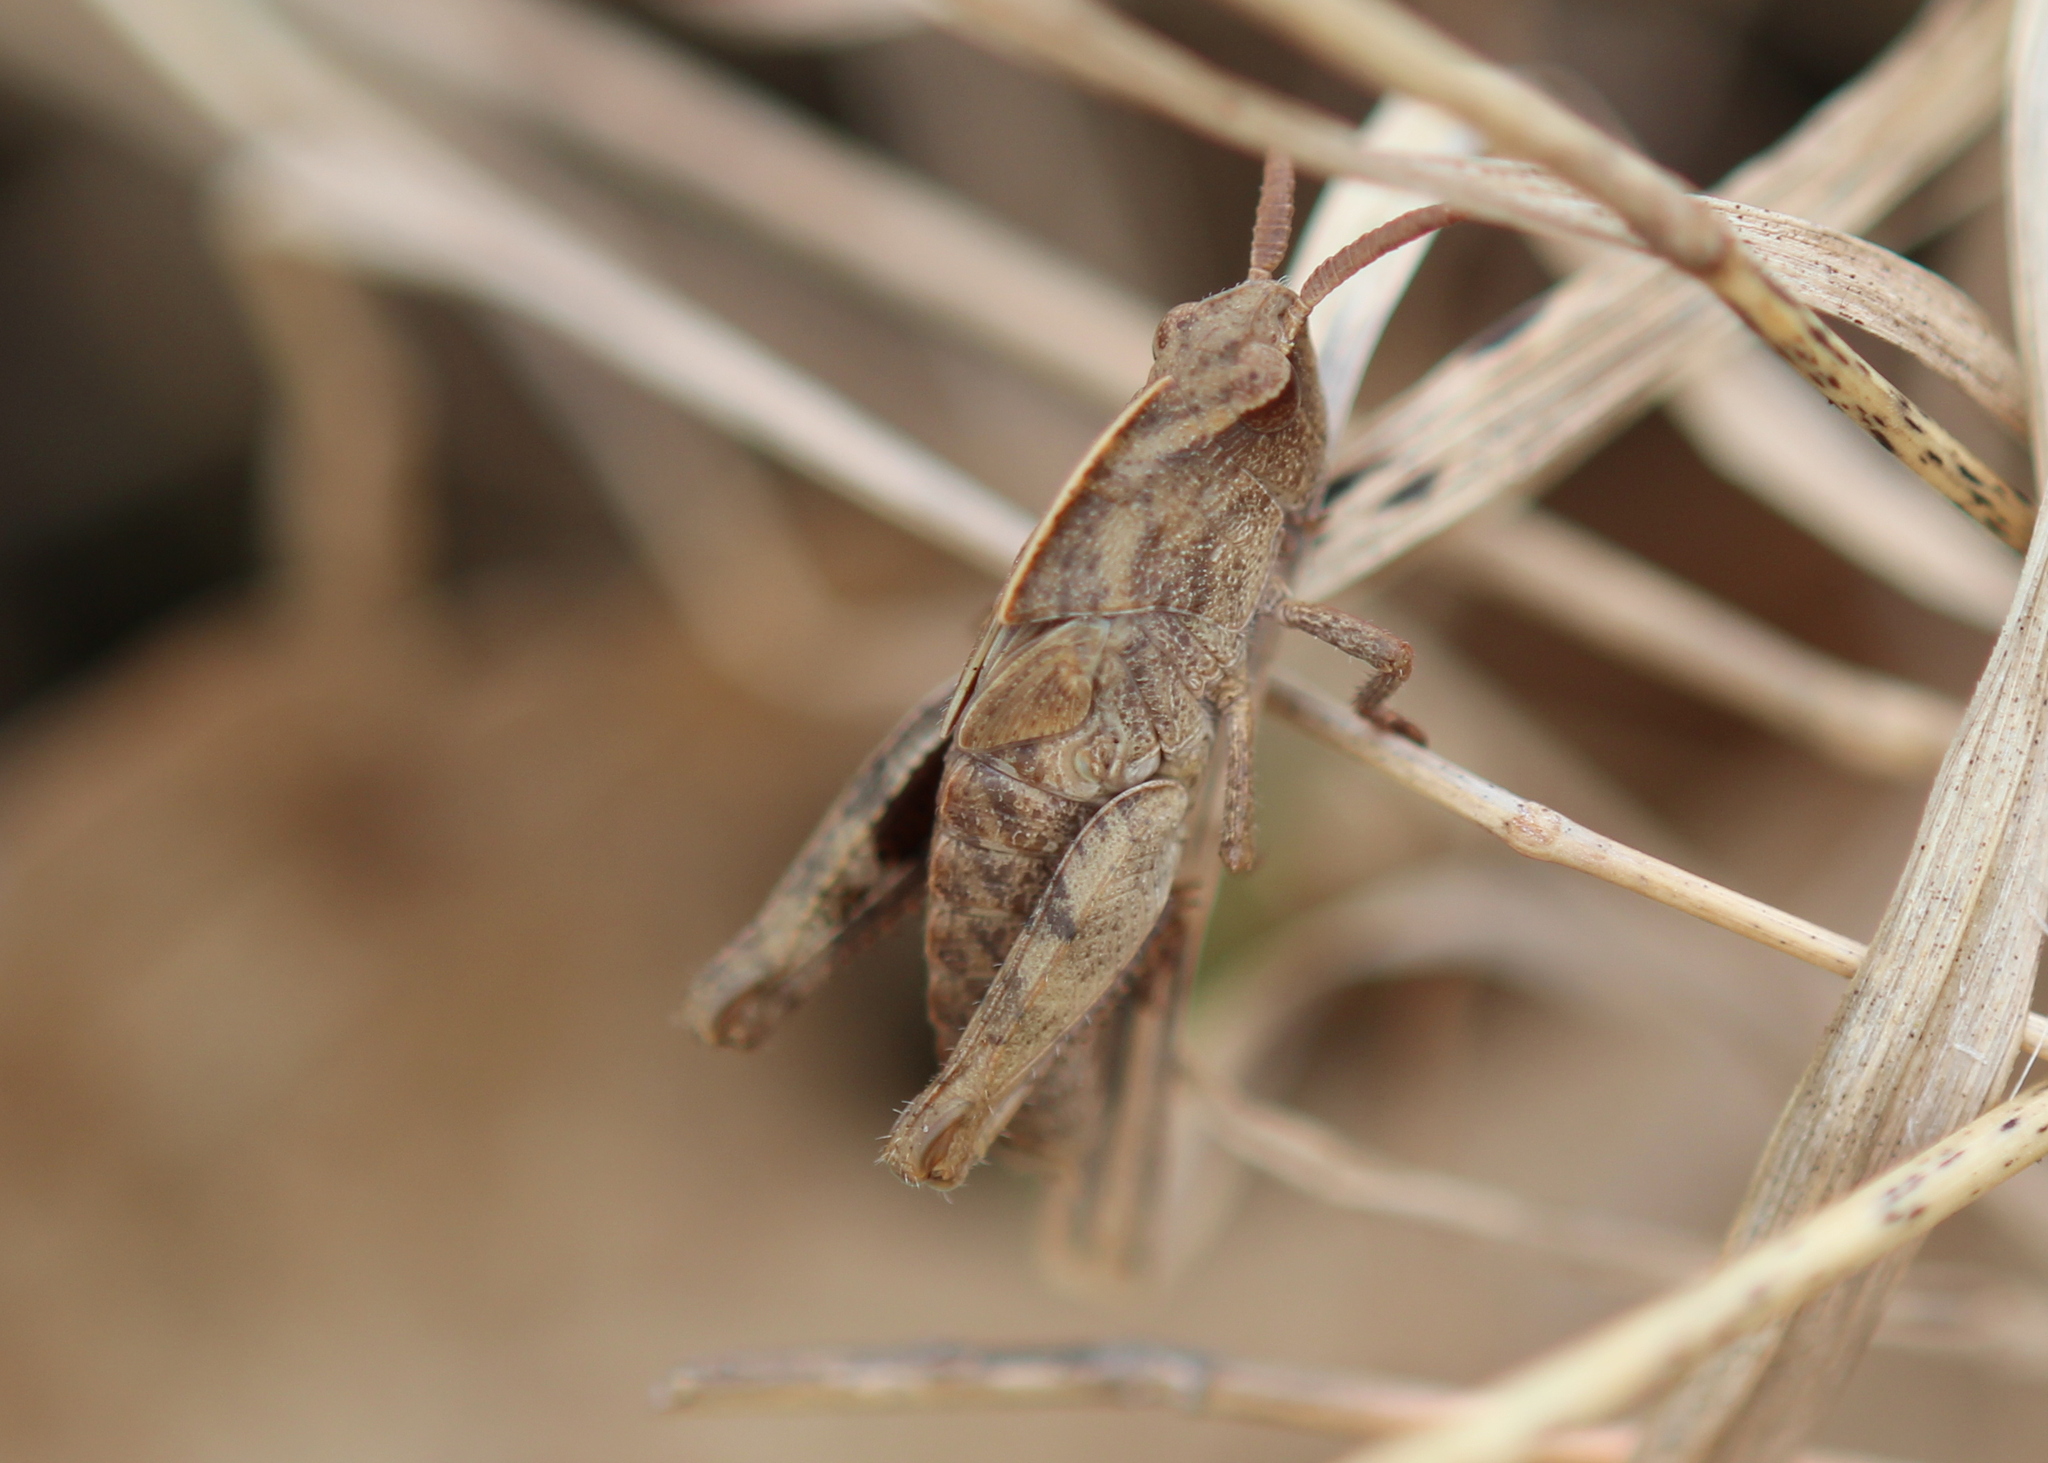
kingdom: Animalia
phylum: Arthropoda
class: Insecta
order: Orthoptera
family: Acrididae
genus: Chortophaga
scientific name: Chortophaga viridifasciata
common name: Green-striped grasshopper
